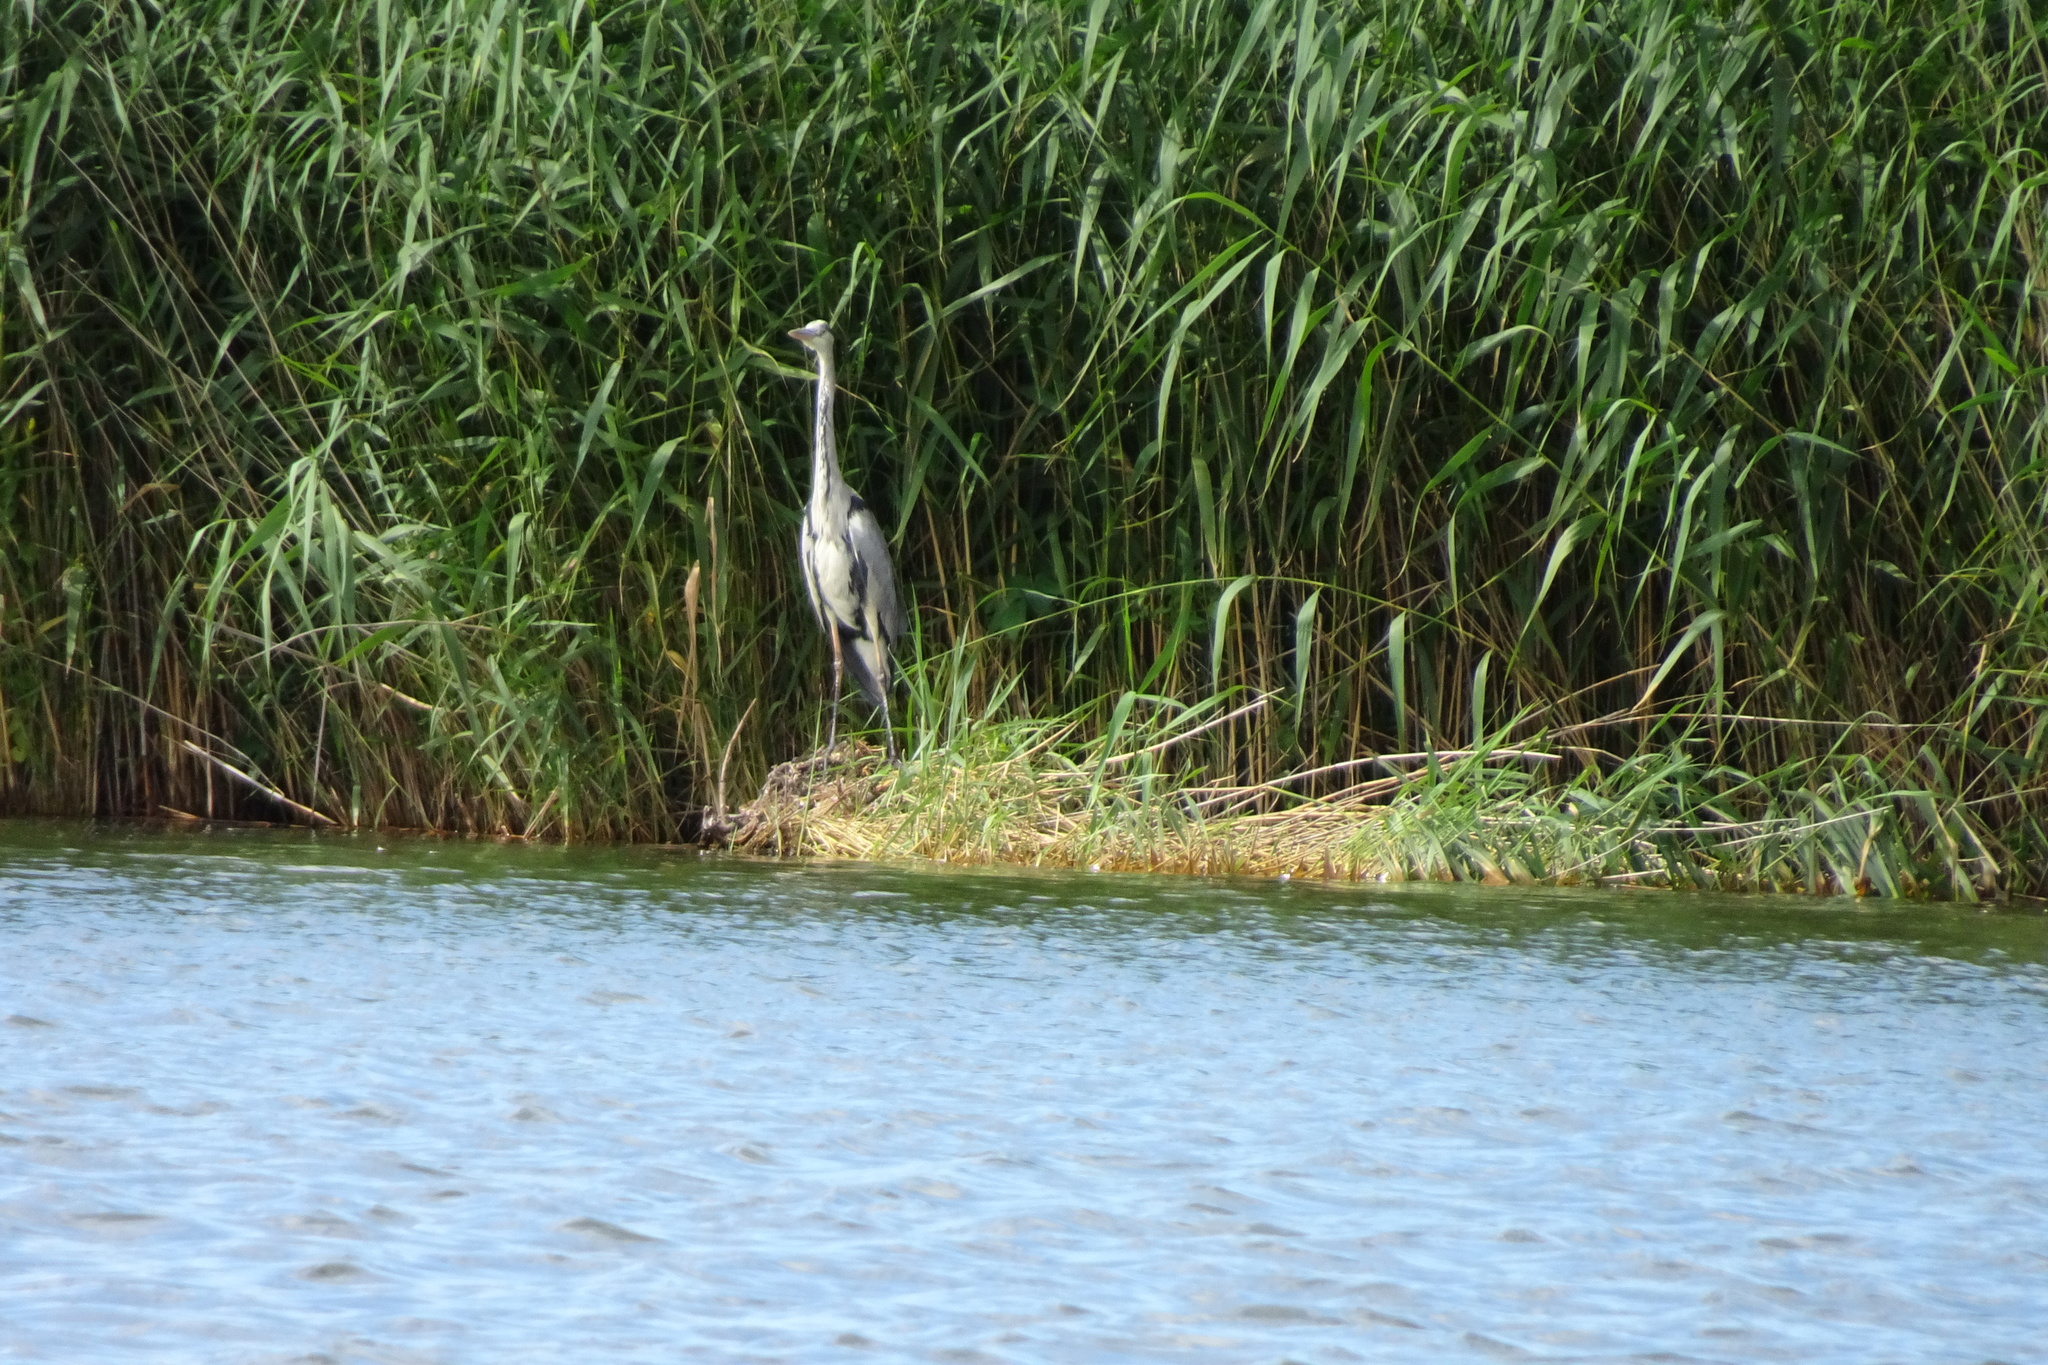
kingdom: Animalia
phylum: Chordata
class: Aves
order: Pelecaniformes
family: Ardeidae
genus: Ardea
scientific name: Ardea cinerea
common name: Grey heron
